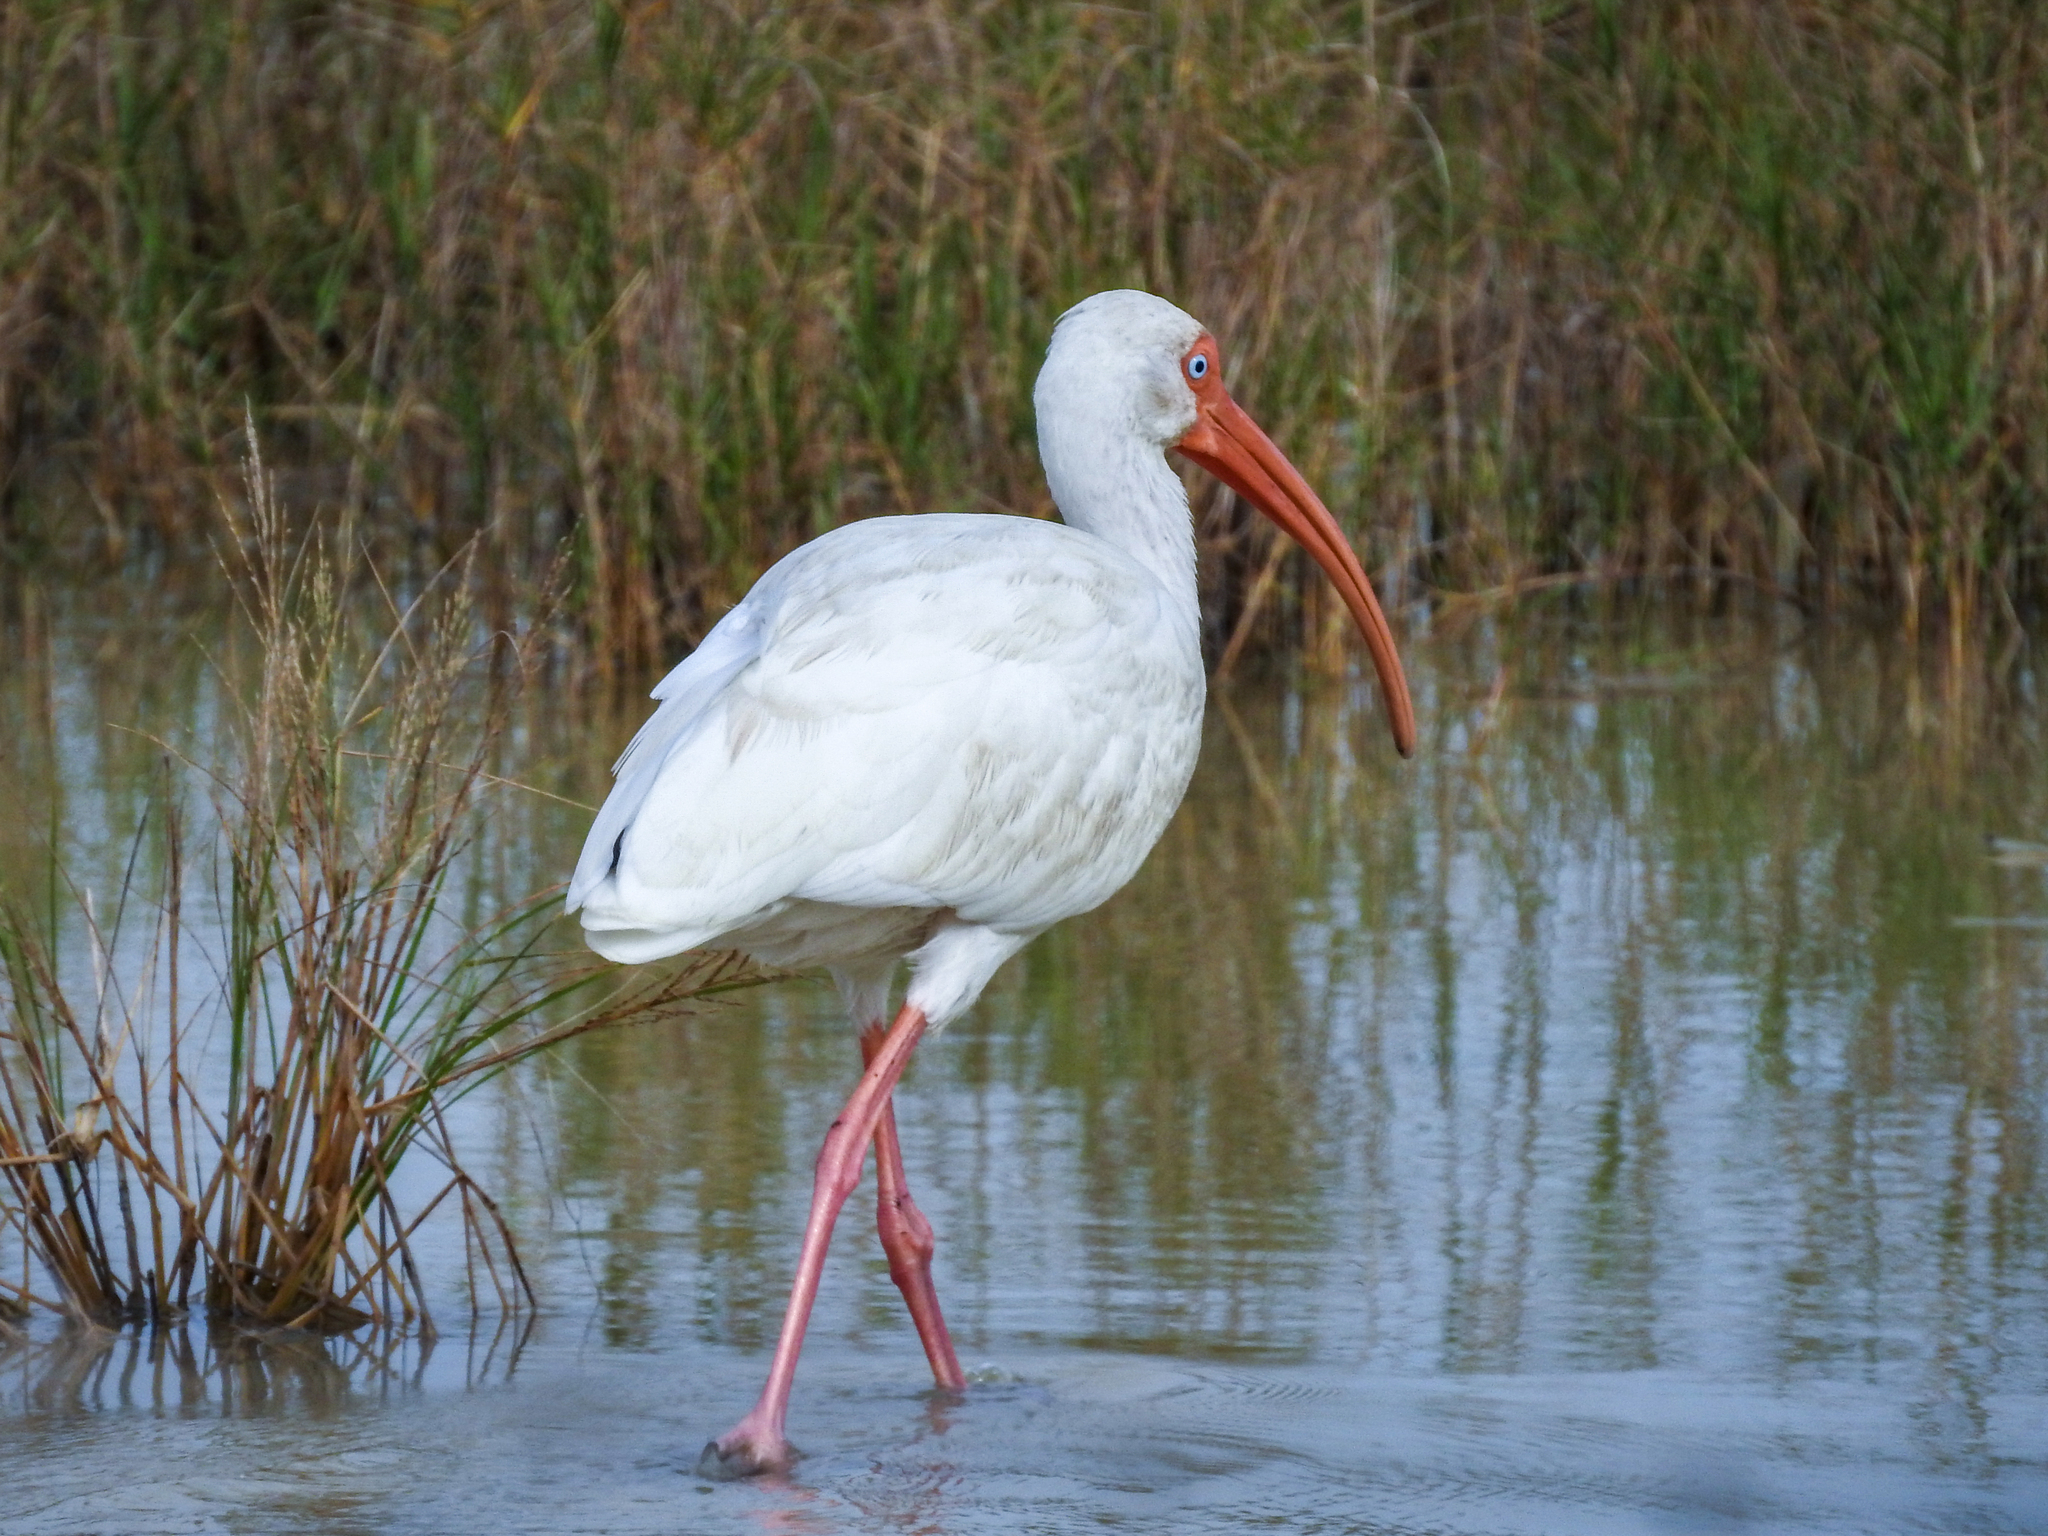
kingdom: Animalia
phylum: Chordata
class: Aves
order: Pelecaniformes
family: Threskiornithidae
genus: Eudocimus
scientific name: Eudocimus albus
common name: White ibis
